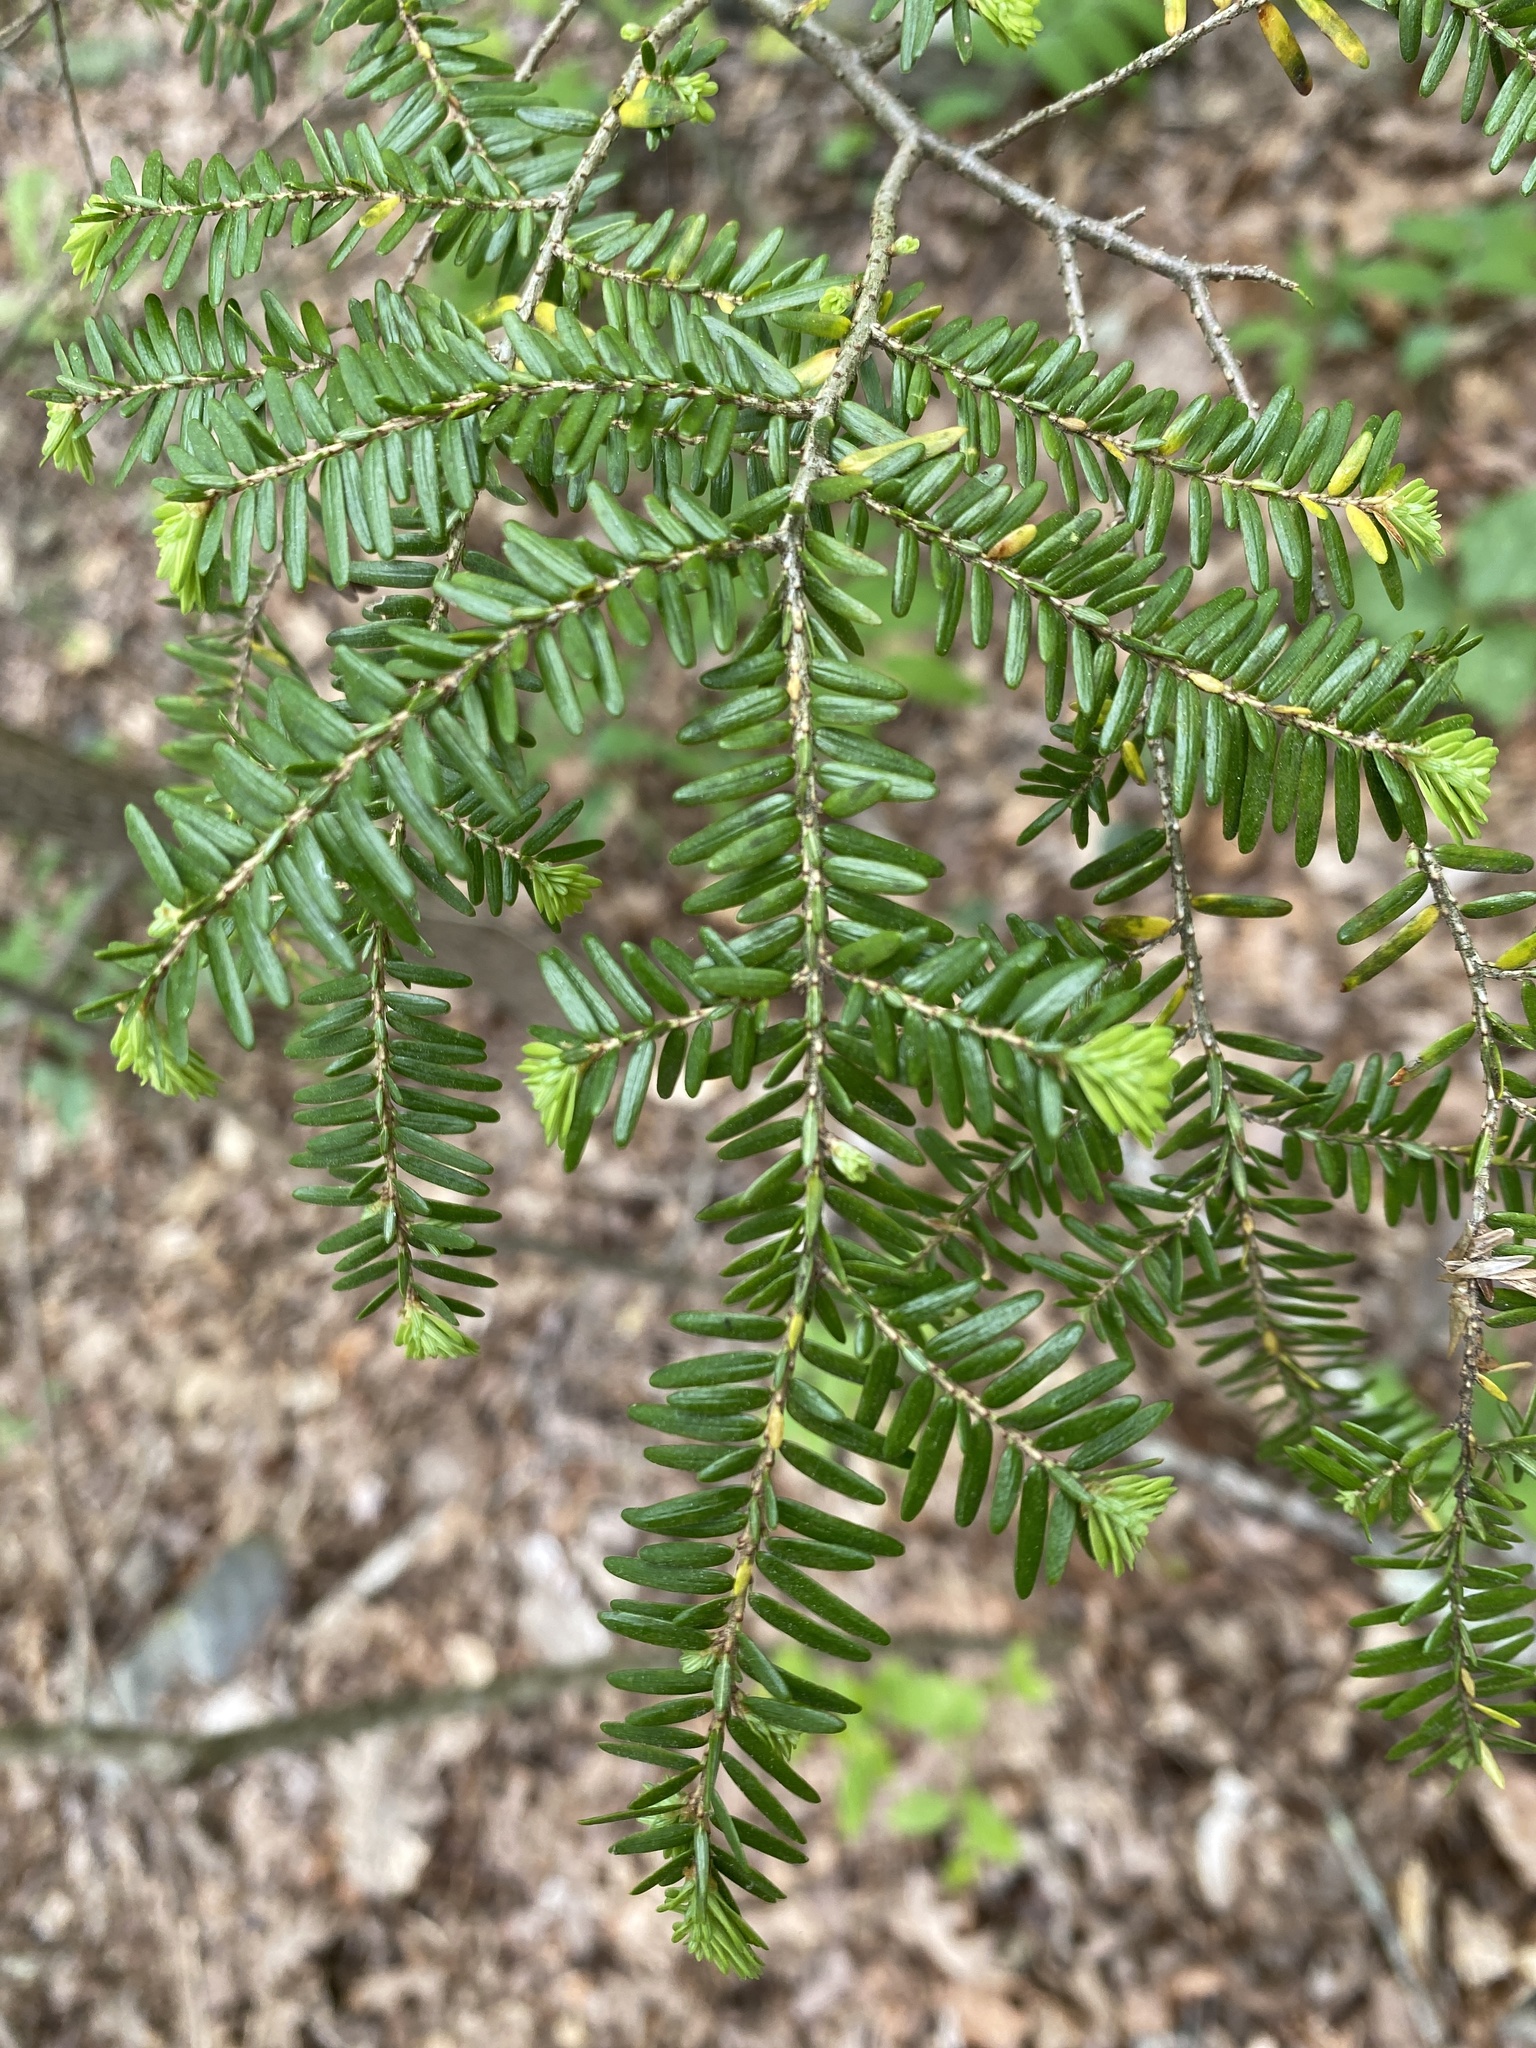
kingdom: Plantae
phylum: Tracheophyta
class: Pinopsida
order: Pinales
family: Pinaceae
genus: Tsuga
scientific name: Tsuga canadensis
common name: Eastern hemlock
